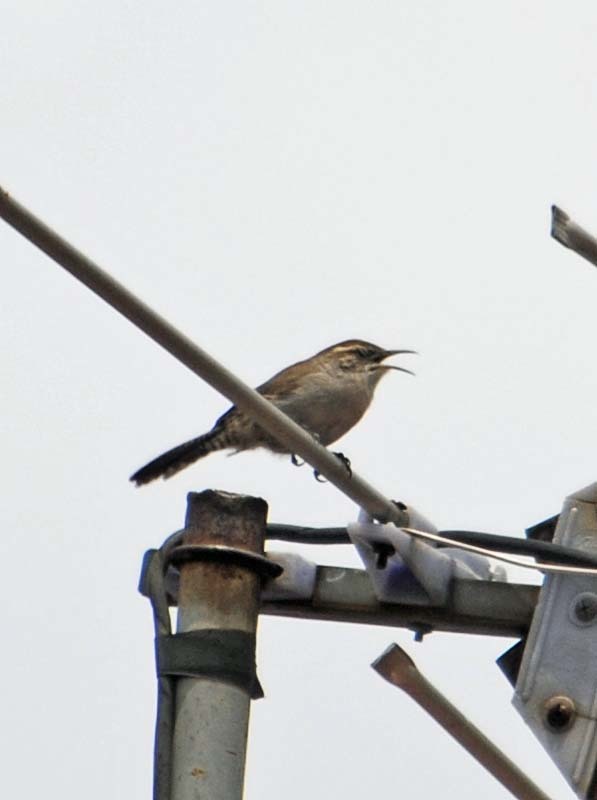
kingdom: Animalia
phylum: Chordata
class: Aves
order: Passeriformes
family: Troglodytidae
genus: Thryomanes
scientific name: Thryomanes bewickii
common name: Bewick's wren
